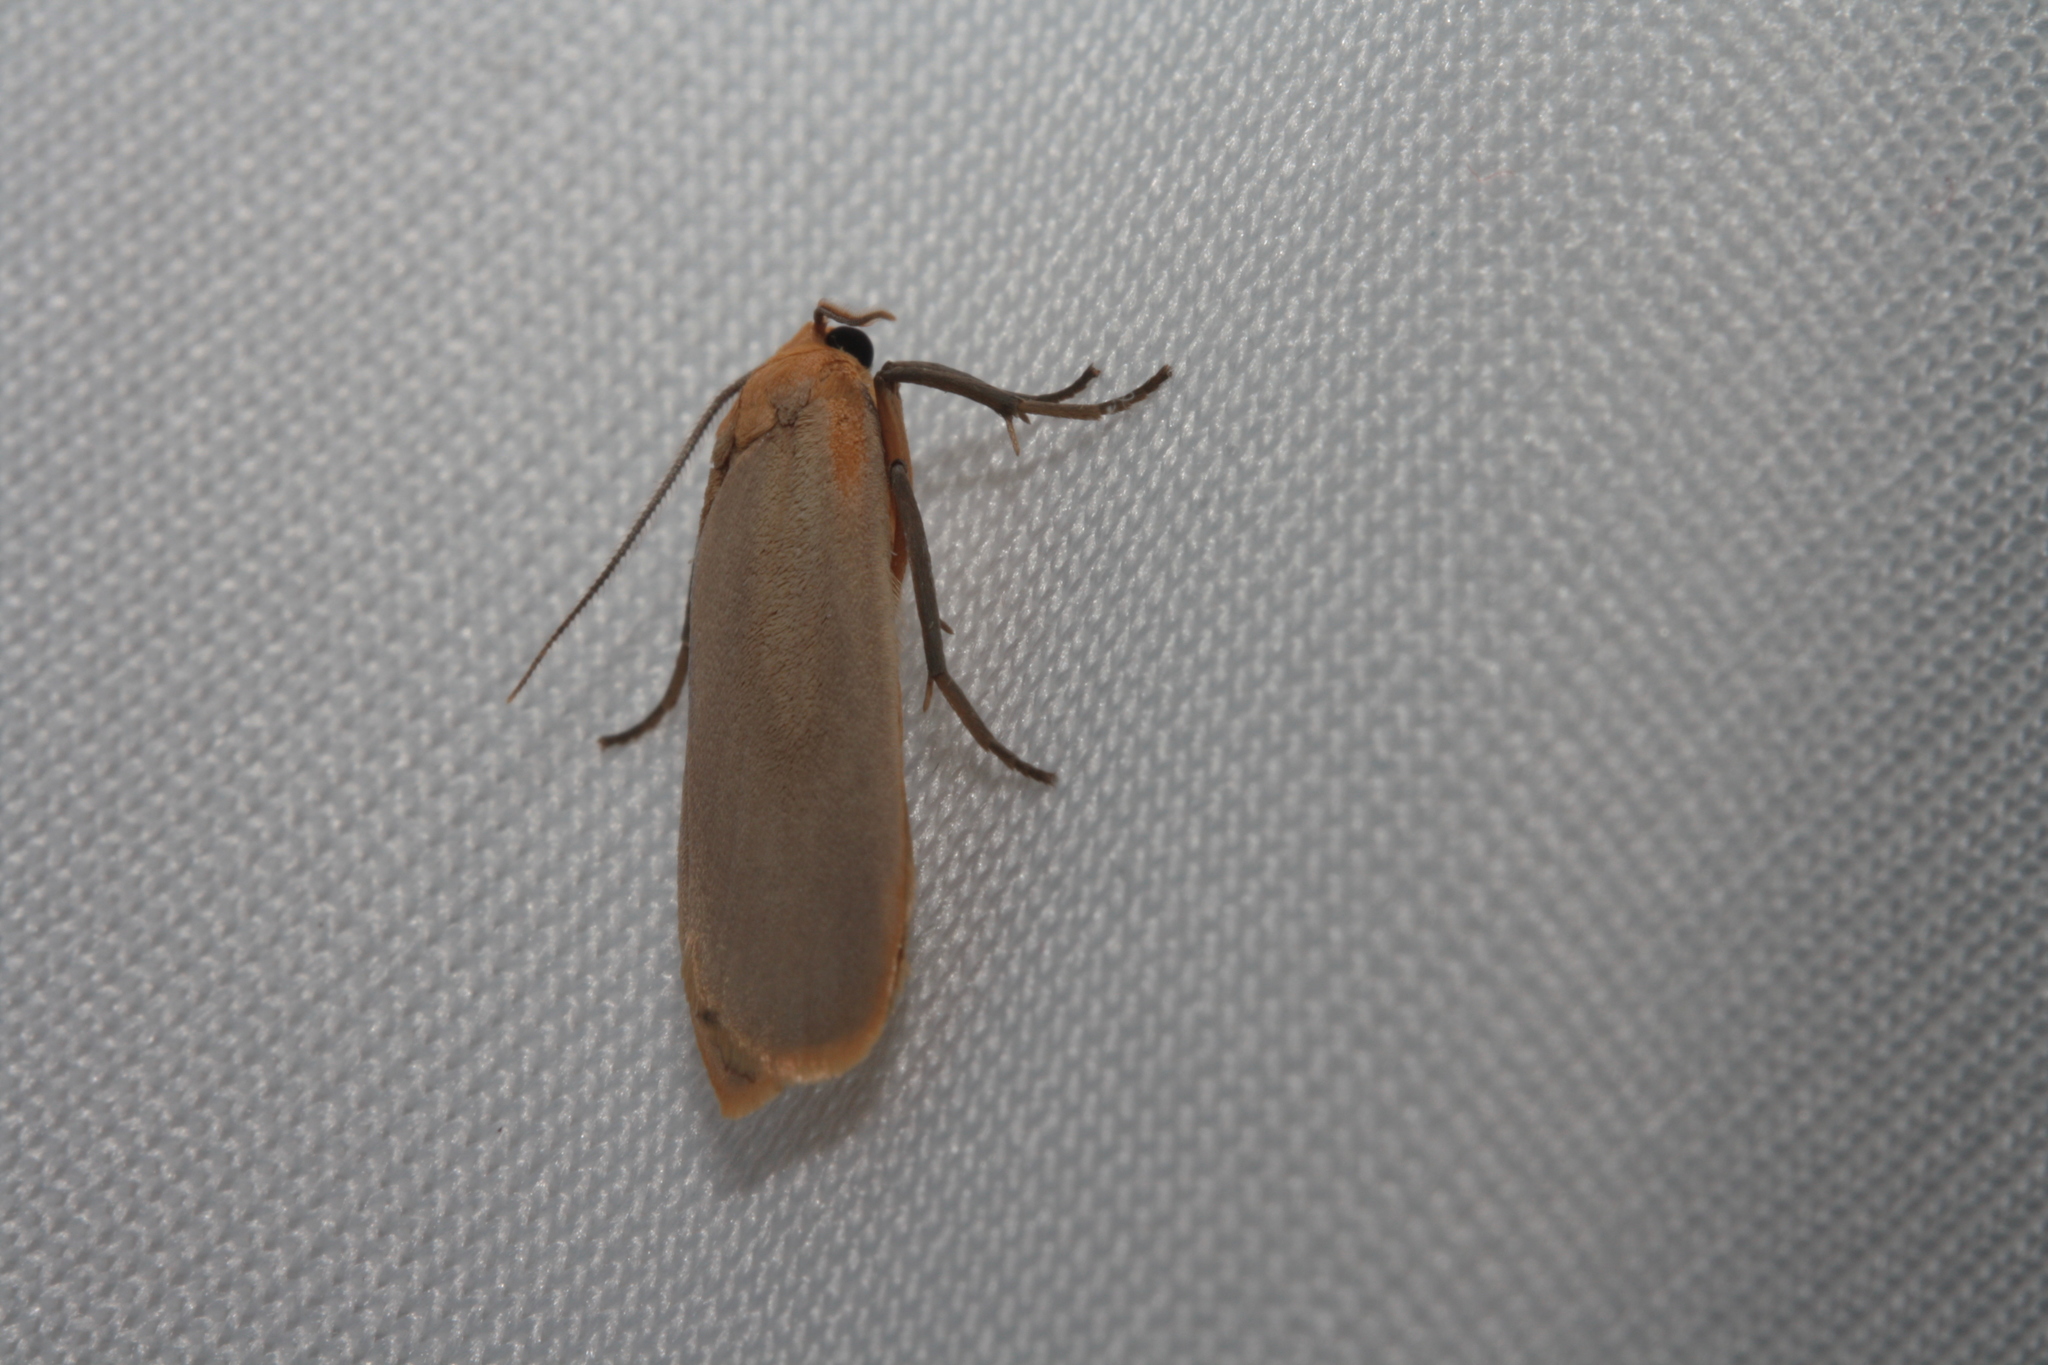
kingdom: Animalia
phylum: Arthropoda
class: Insecta
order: Lepidoptera
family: Erebidae
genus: Katha
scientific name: Katha depressa
